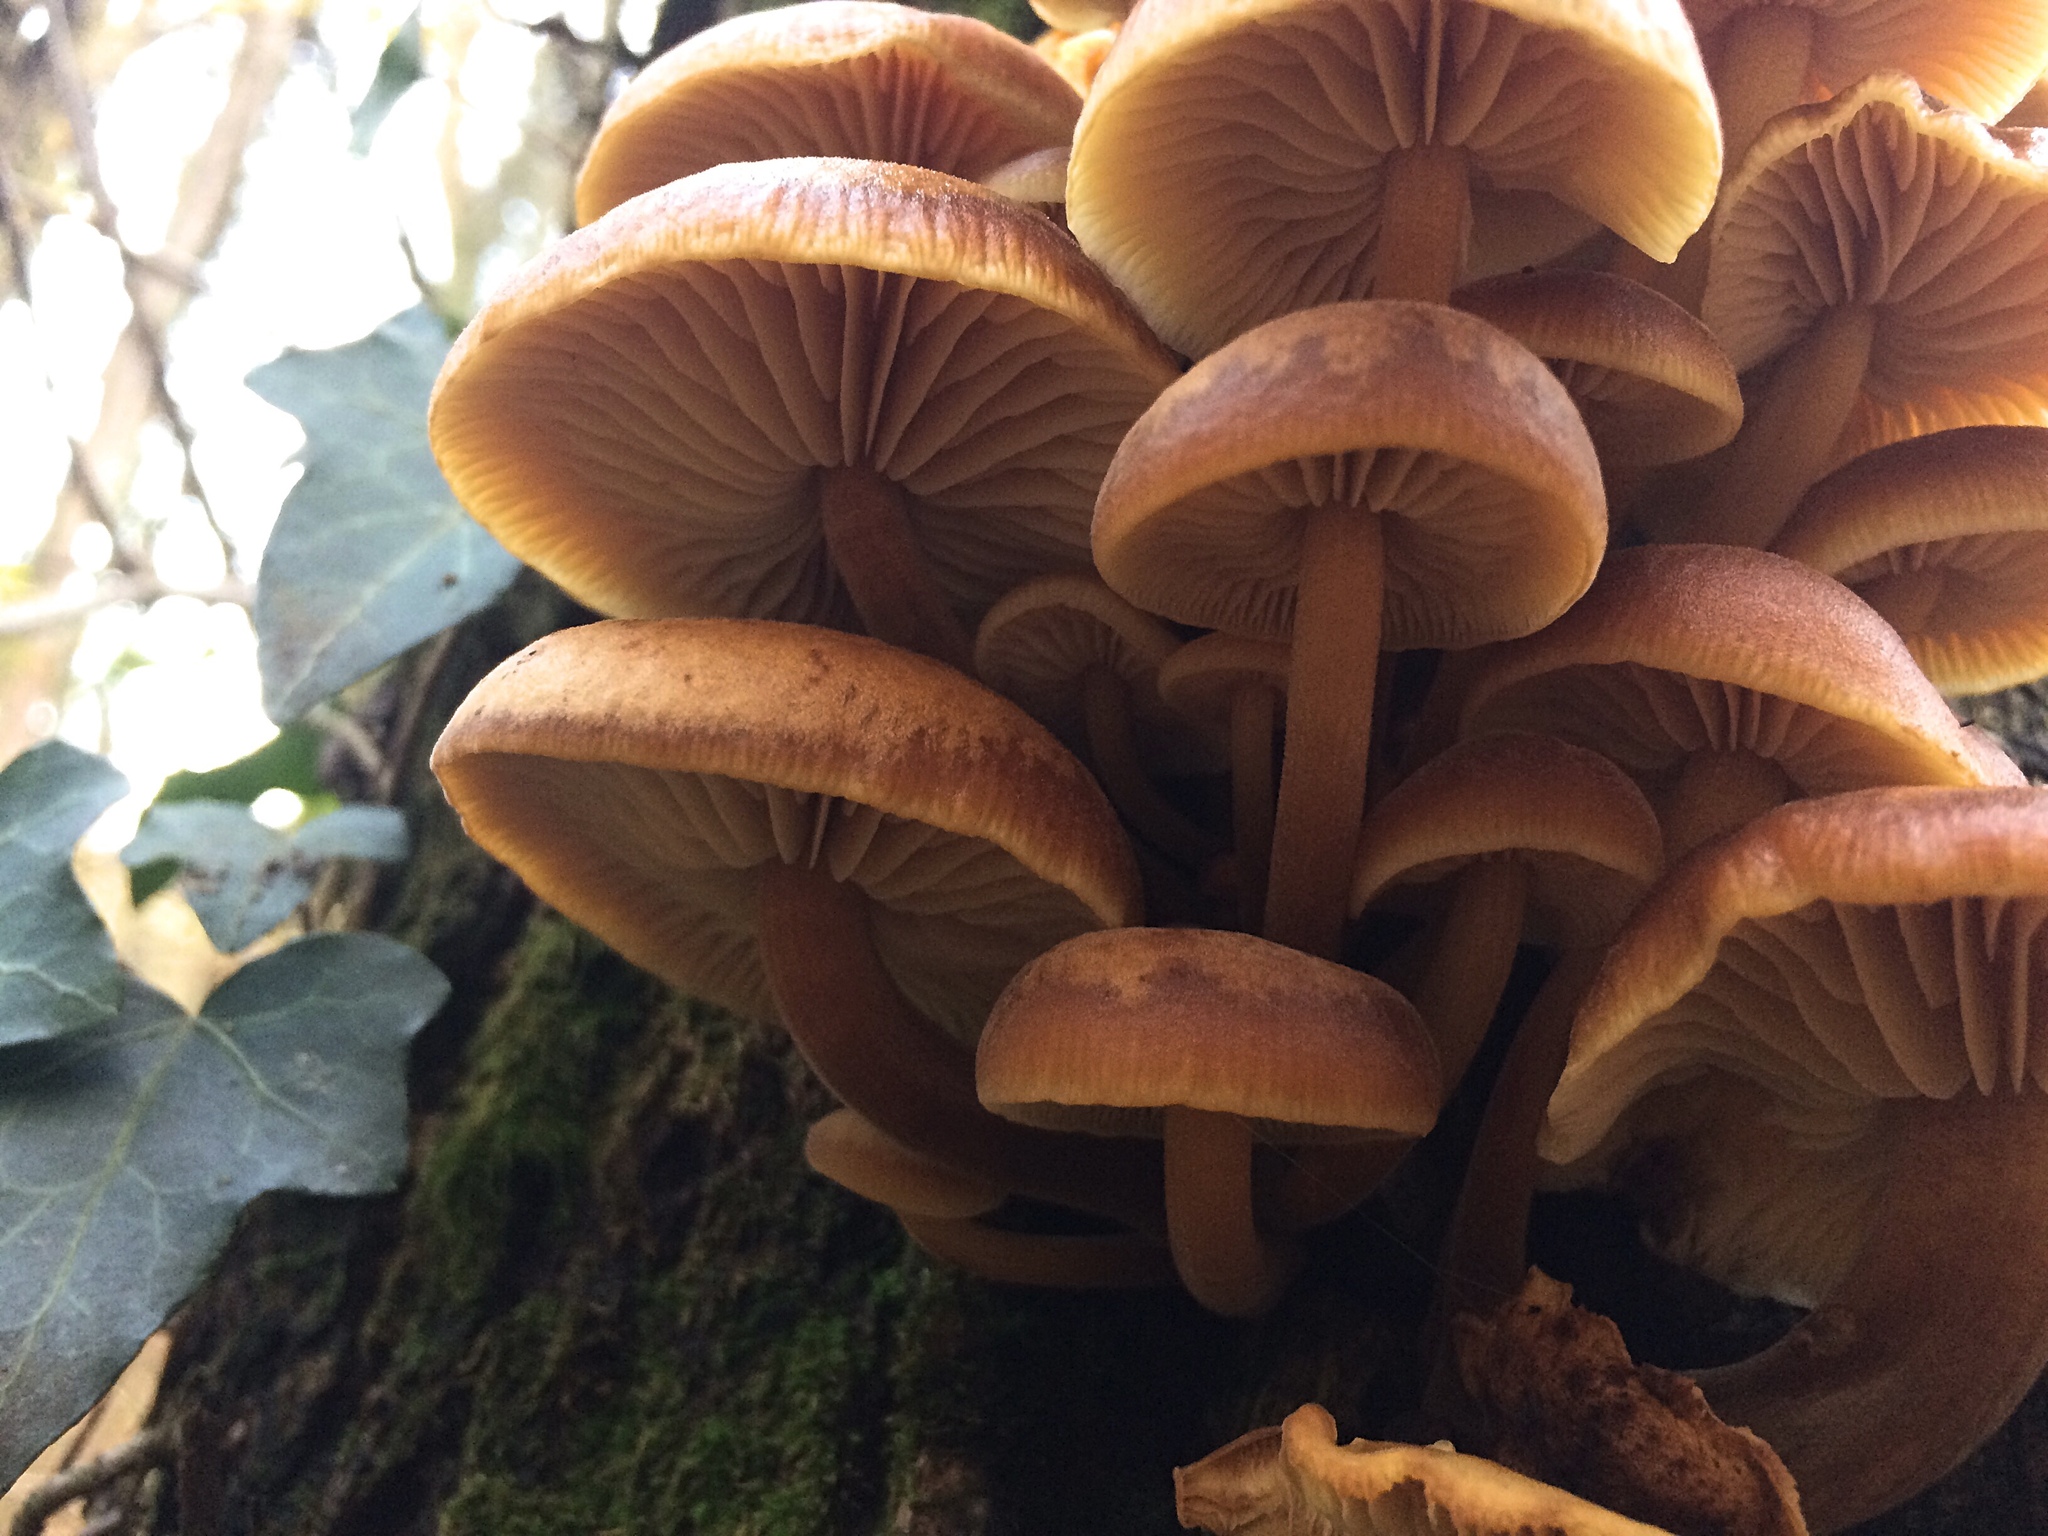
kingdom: Fungi
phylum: Basidiomycota
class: Agaricomycetes
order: Agaricales
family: Physalacriaceae
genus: Flammulina
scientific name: Flammulina
